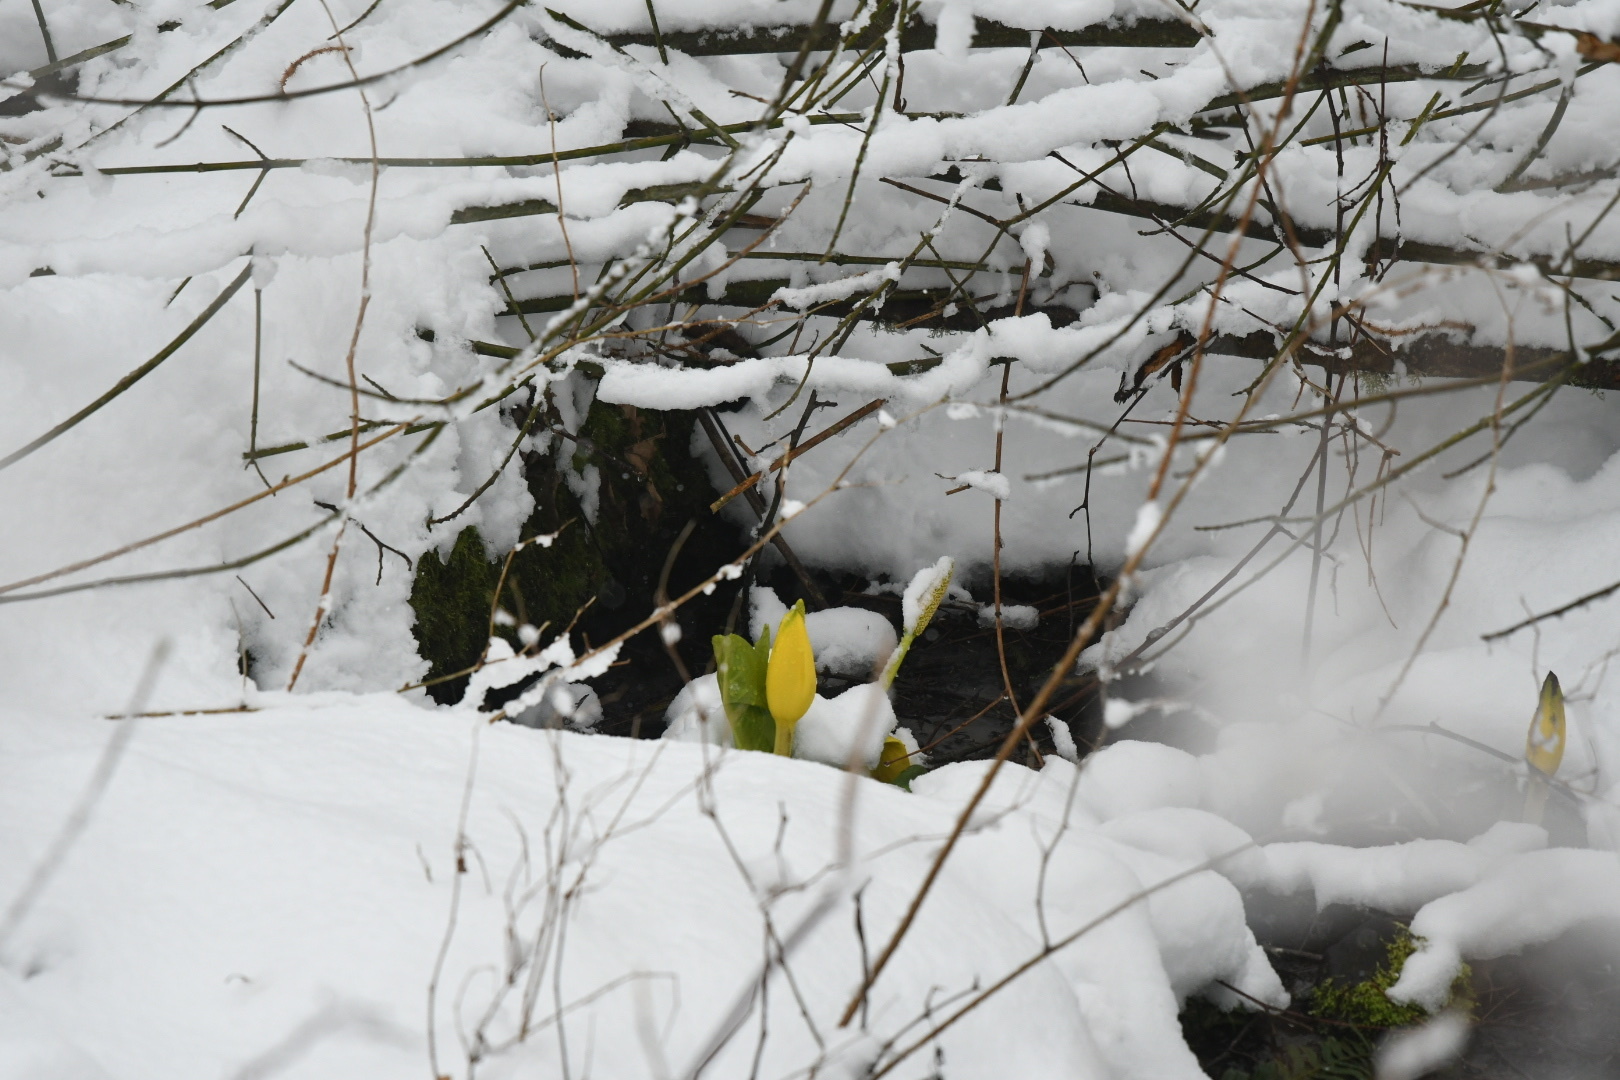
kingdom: Plantae
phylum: Tracheophyta
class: Liliopsida
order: Alismatales
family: Araceae
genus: Lysichiton
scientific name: Lysichiton americanus
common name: American skunk cabbage
